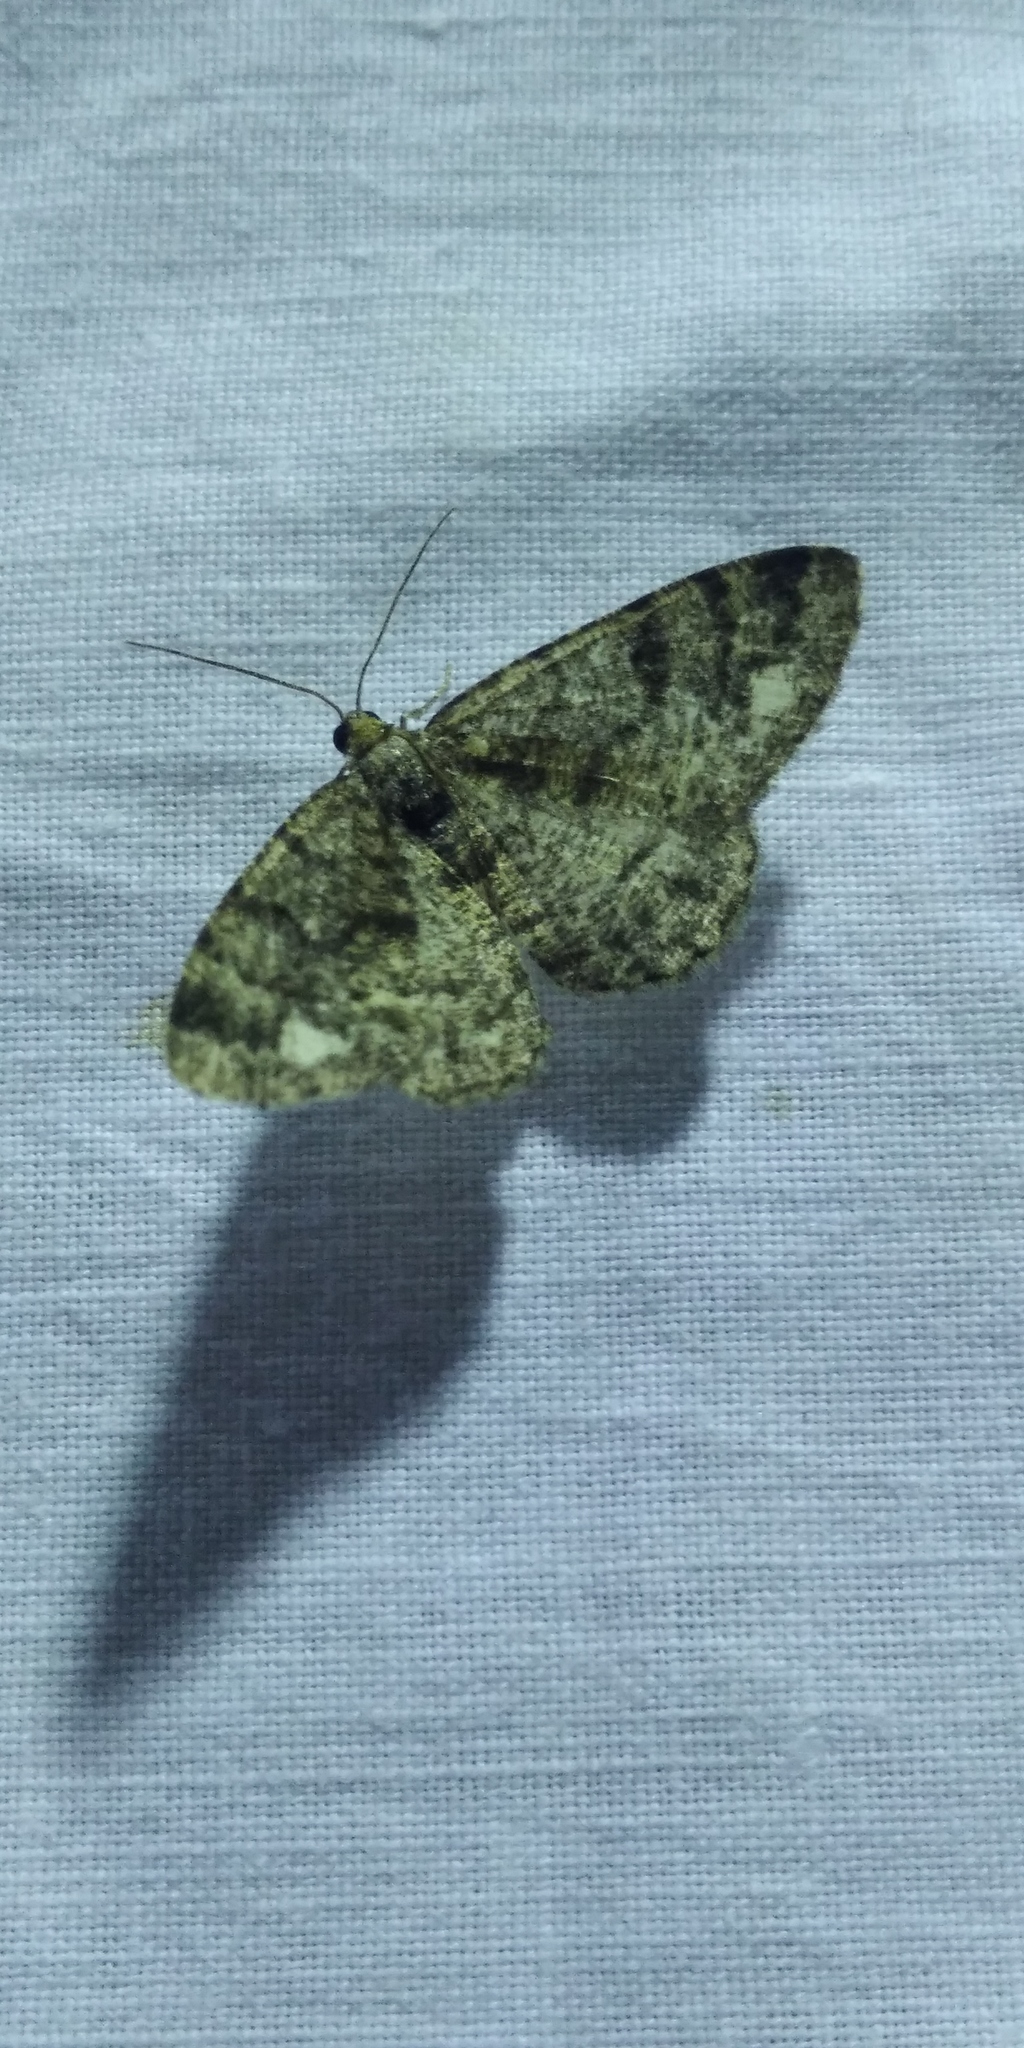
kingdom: Animalia
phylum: Arthropoda
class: Insecta
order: Lepidoptera
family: Geometridae
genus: Parectropis
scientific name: Parectropis similaria
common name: Brindled white-spot
